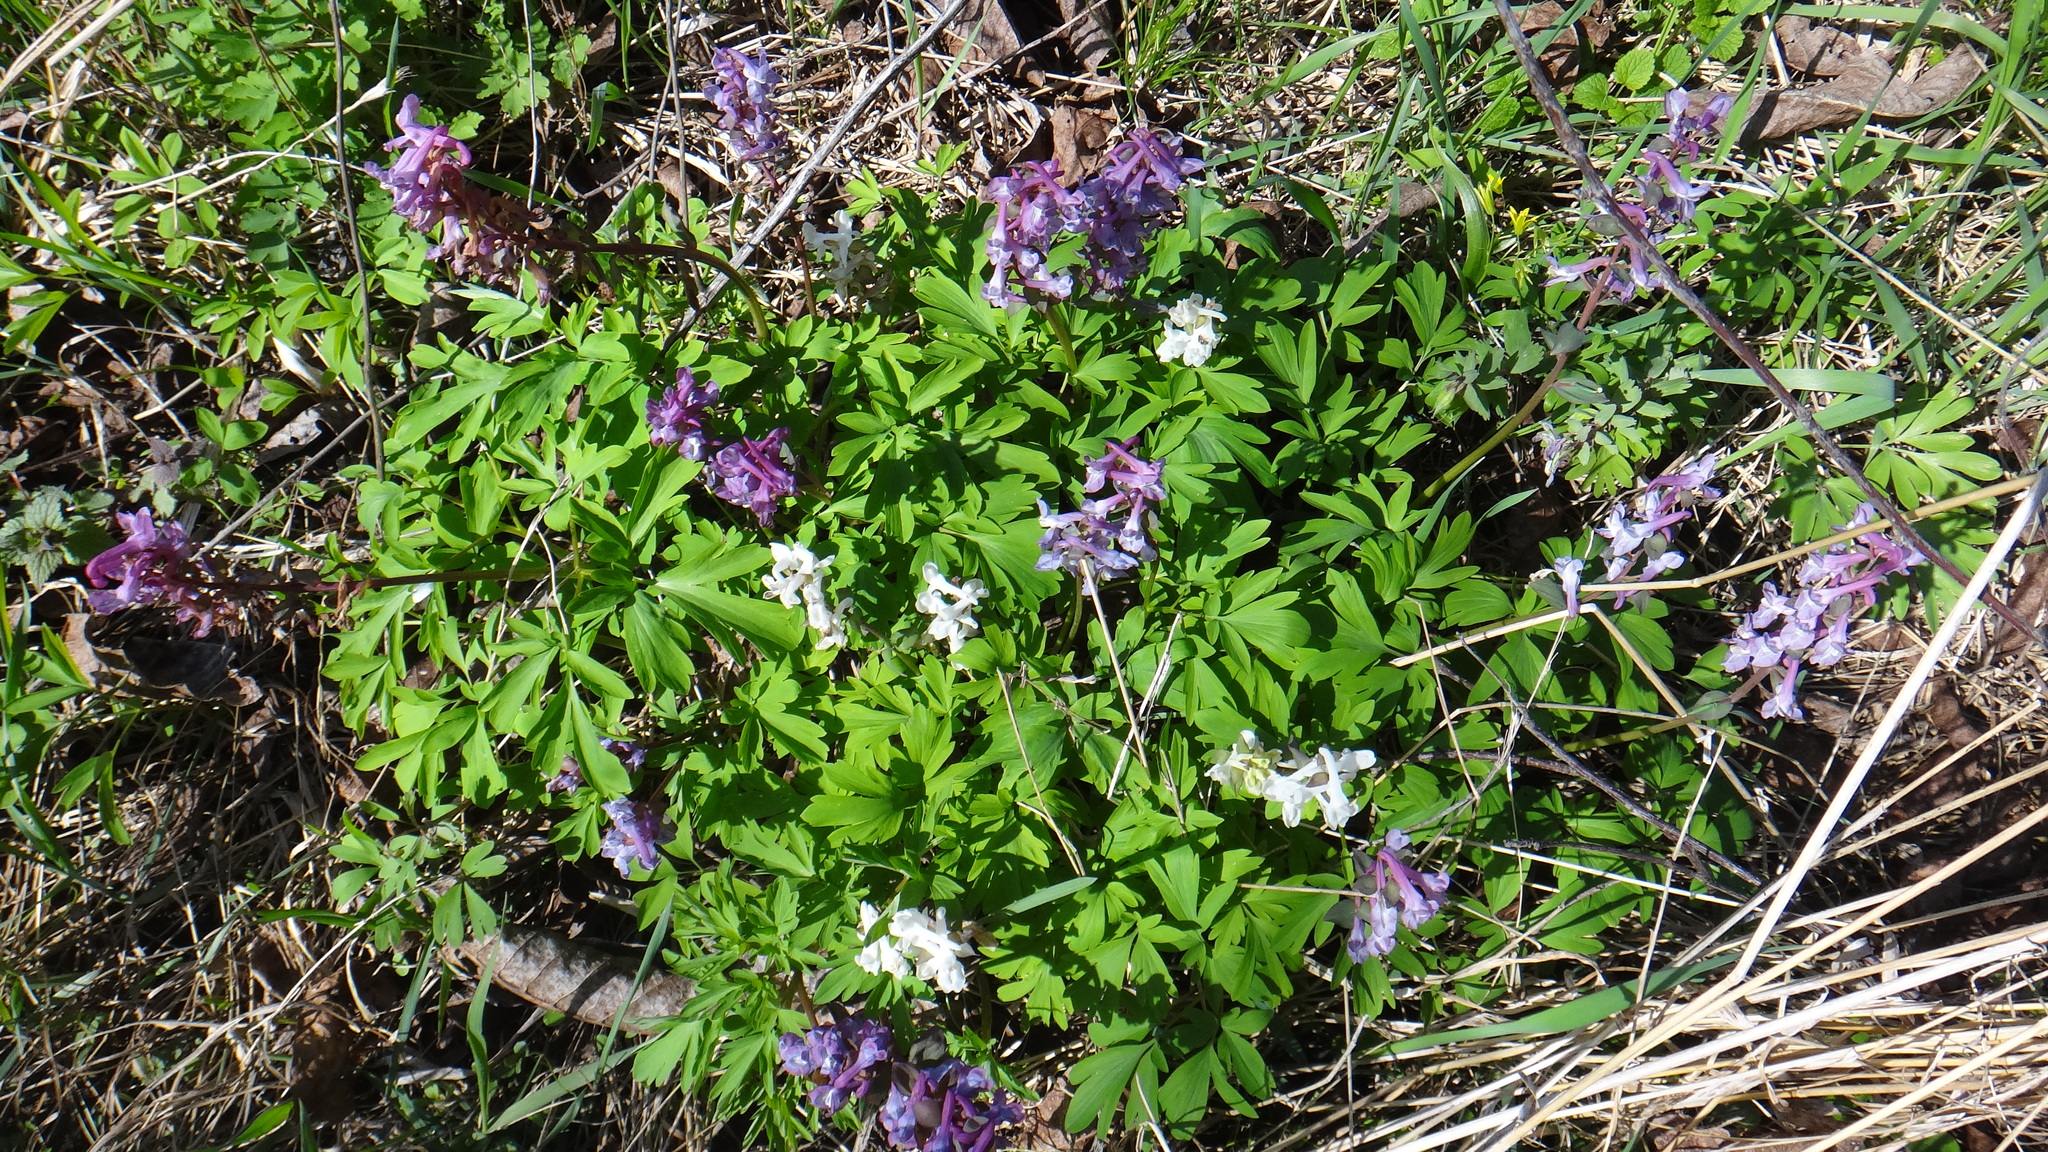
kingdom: Plantae
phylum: Tracheophyta
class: Magnoliopsida
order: Ranunculales
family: Papaveraceae
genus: Corydalis
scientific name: Corydalis cava
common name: Hollowroot
